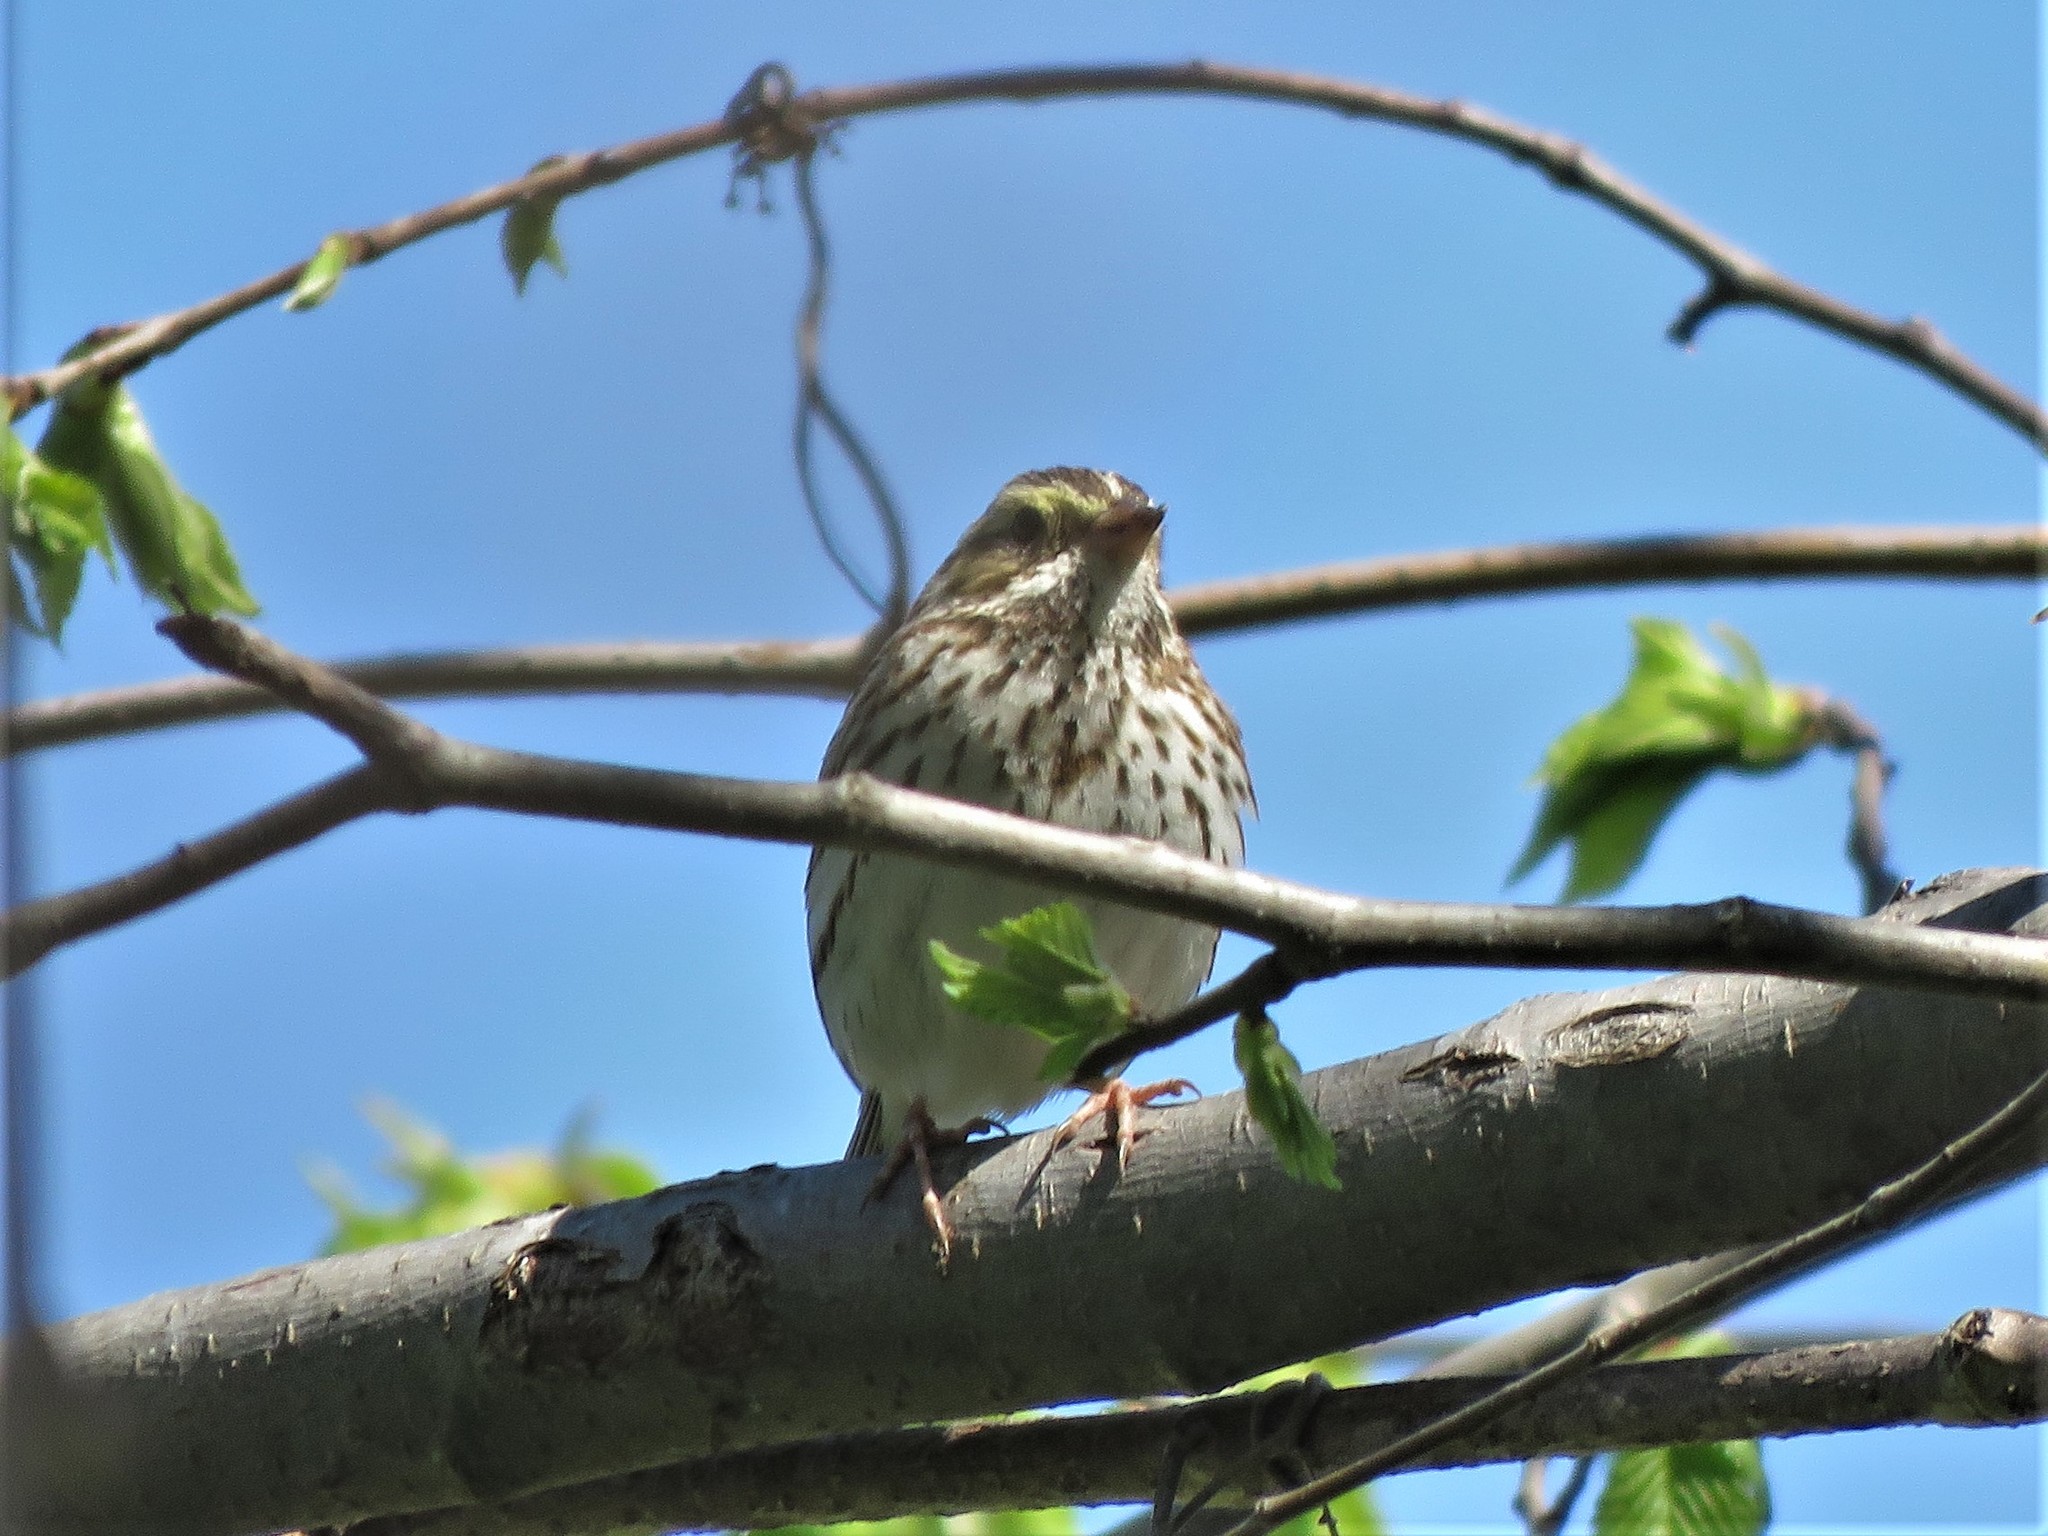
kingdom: Animalia
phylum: Chordata
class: Aves
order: Passeriformes
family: Passerellidae
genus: Passerculus
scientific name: Passerculus sandwichensis
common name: Savannah sparrow
